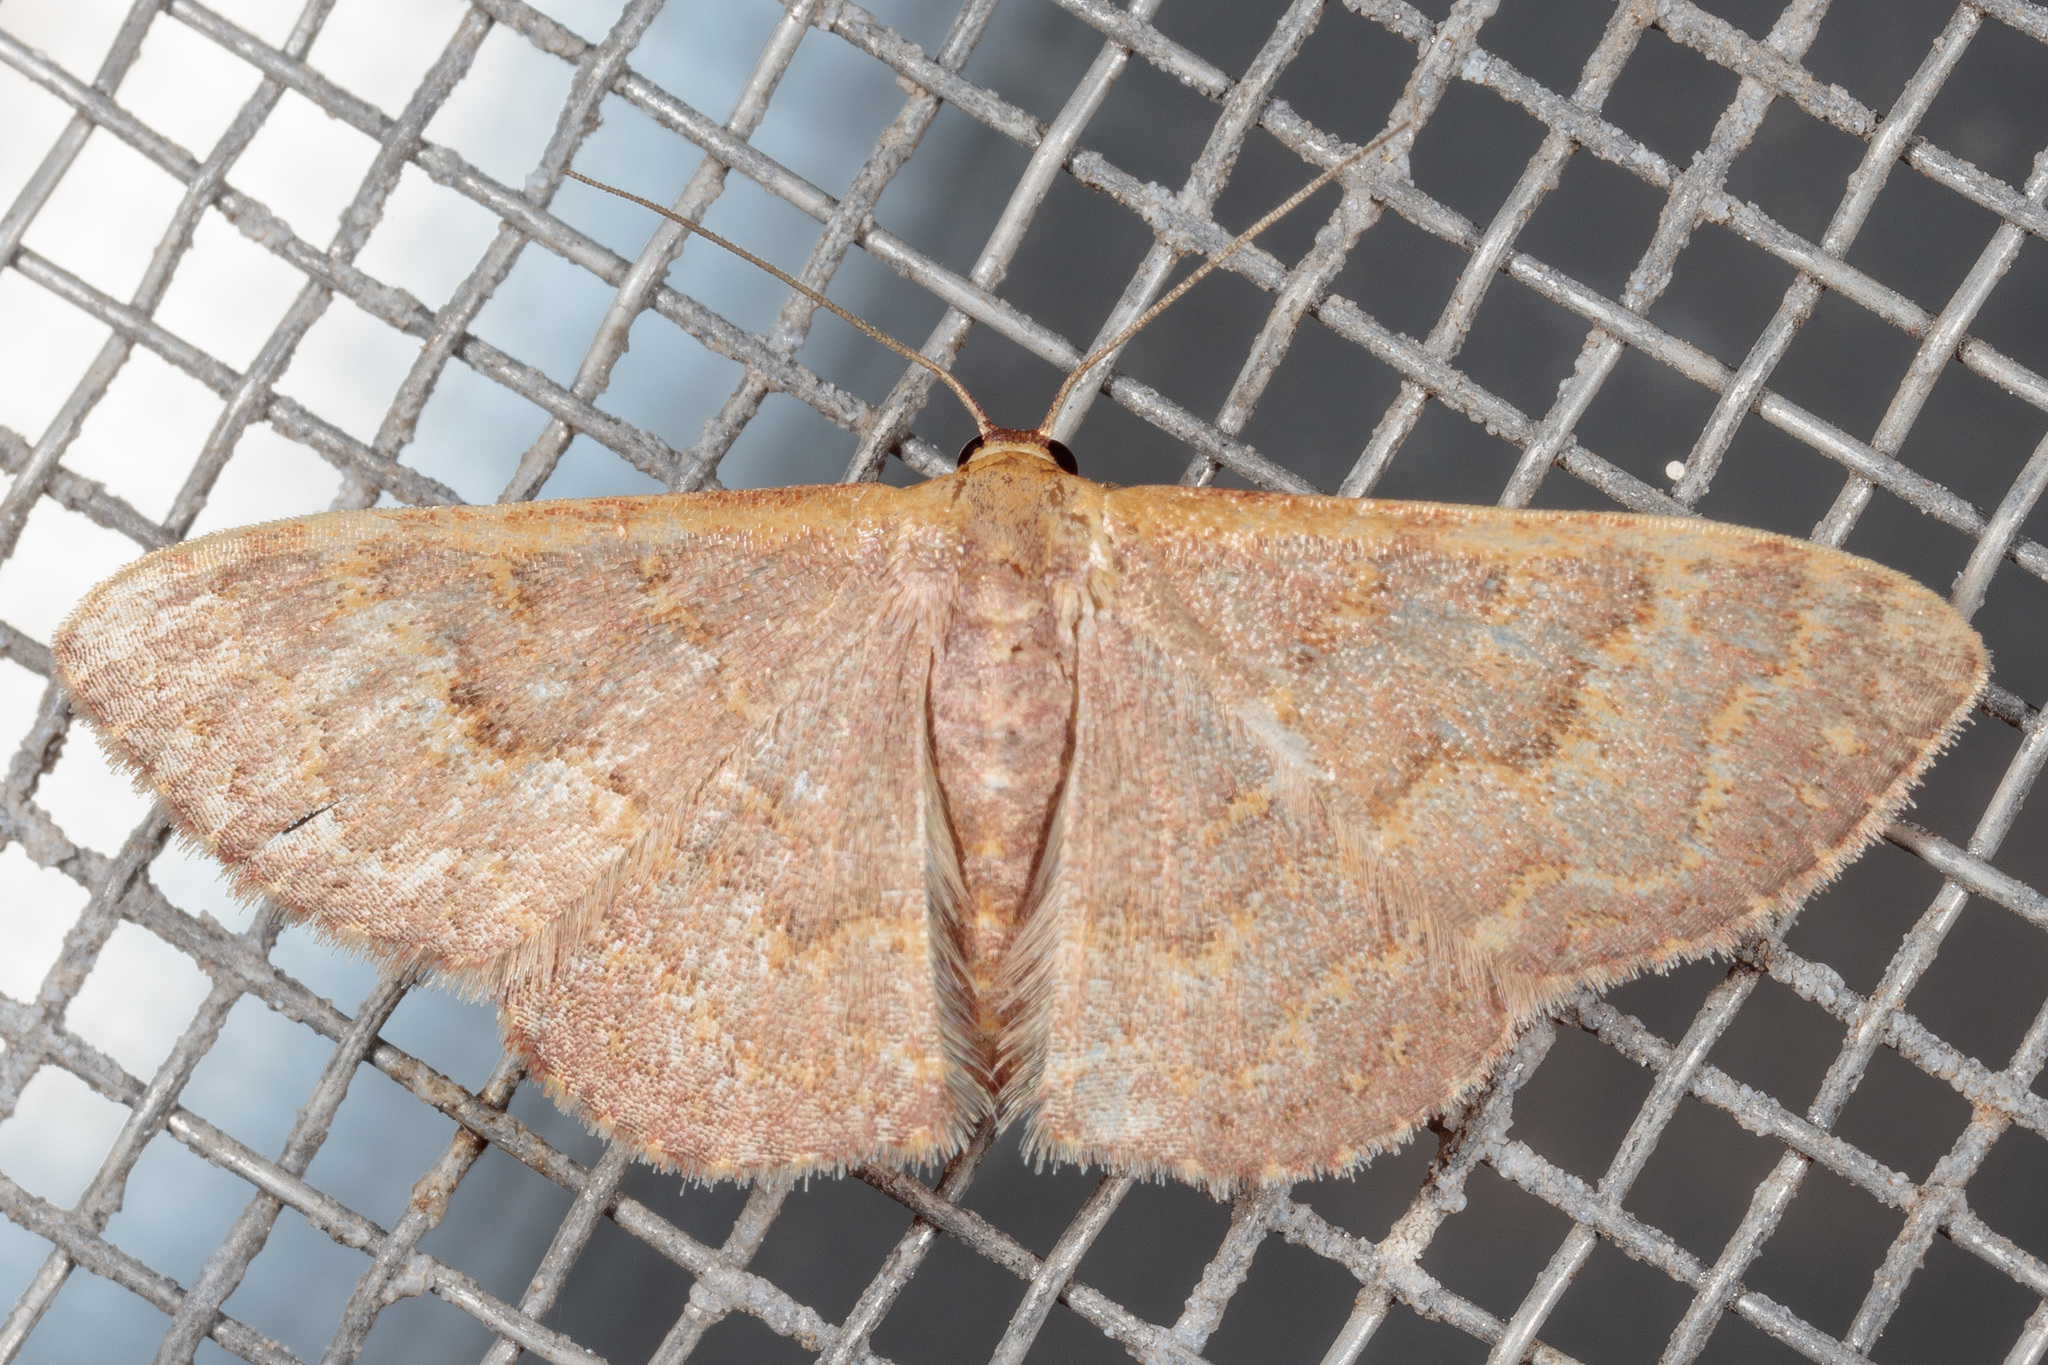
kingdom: Animalia
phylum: Arthropoda
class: Insecta
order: Lepidoptera
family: Geometridae
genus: Leptostales
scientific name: Leptostales pannaria
